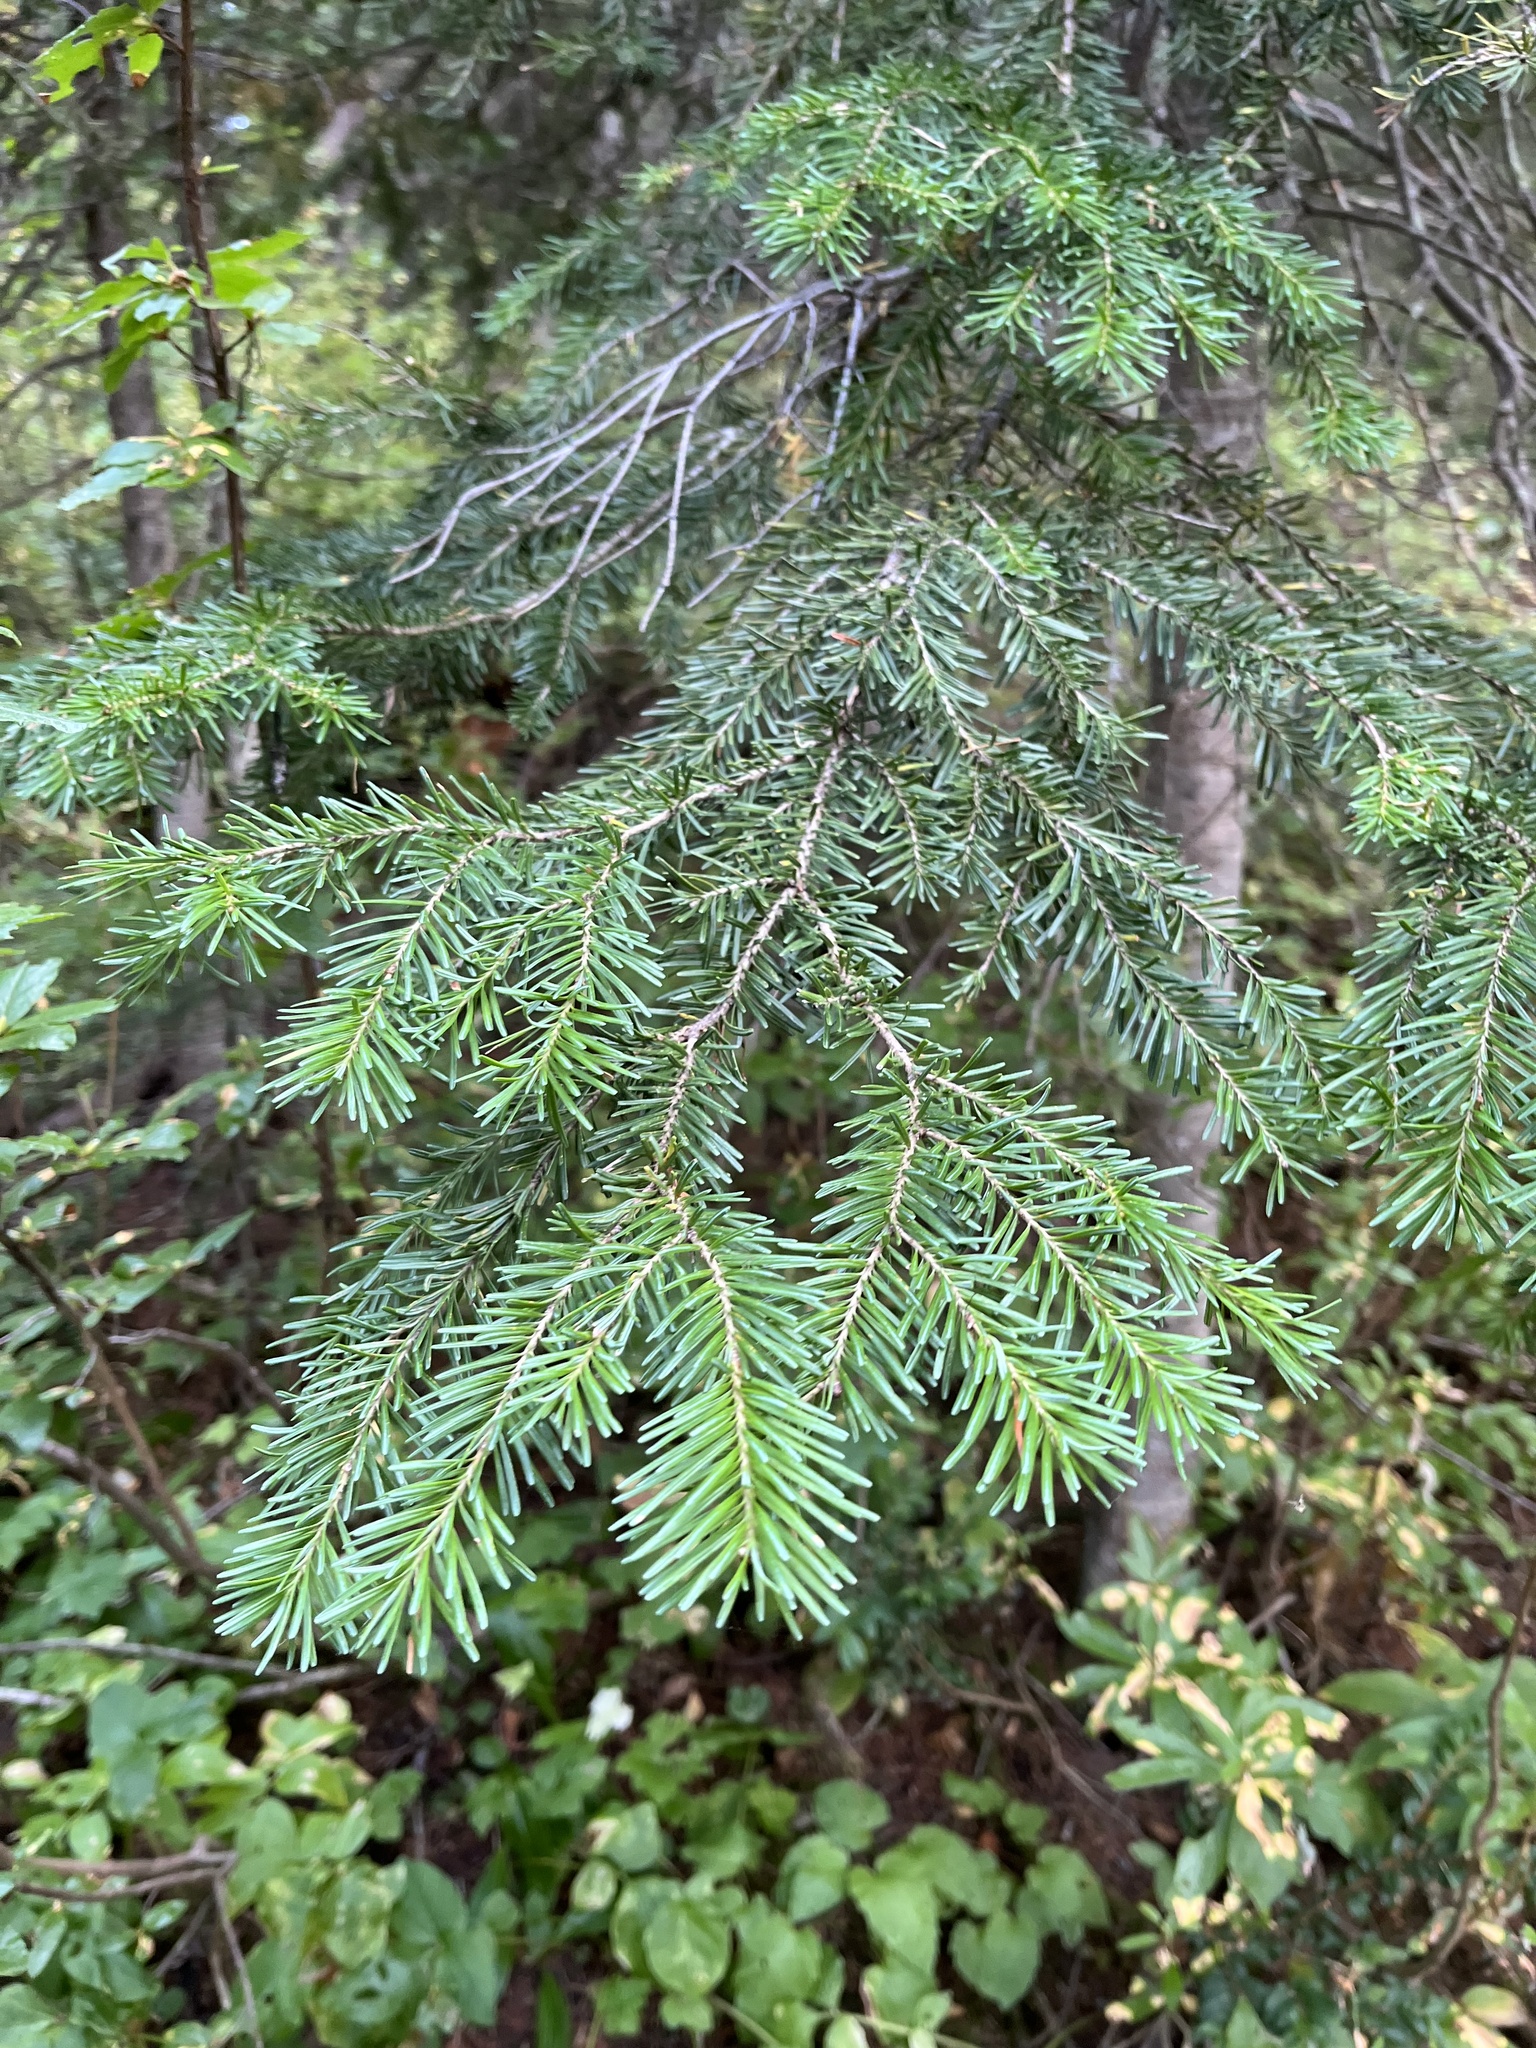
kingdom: Plantae
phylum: Tracheophyta
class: Pinopsida
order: Pinales
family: Pinaceae
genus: Abies
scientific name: Abies lasiocarpa
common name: Subalpine fir
